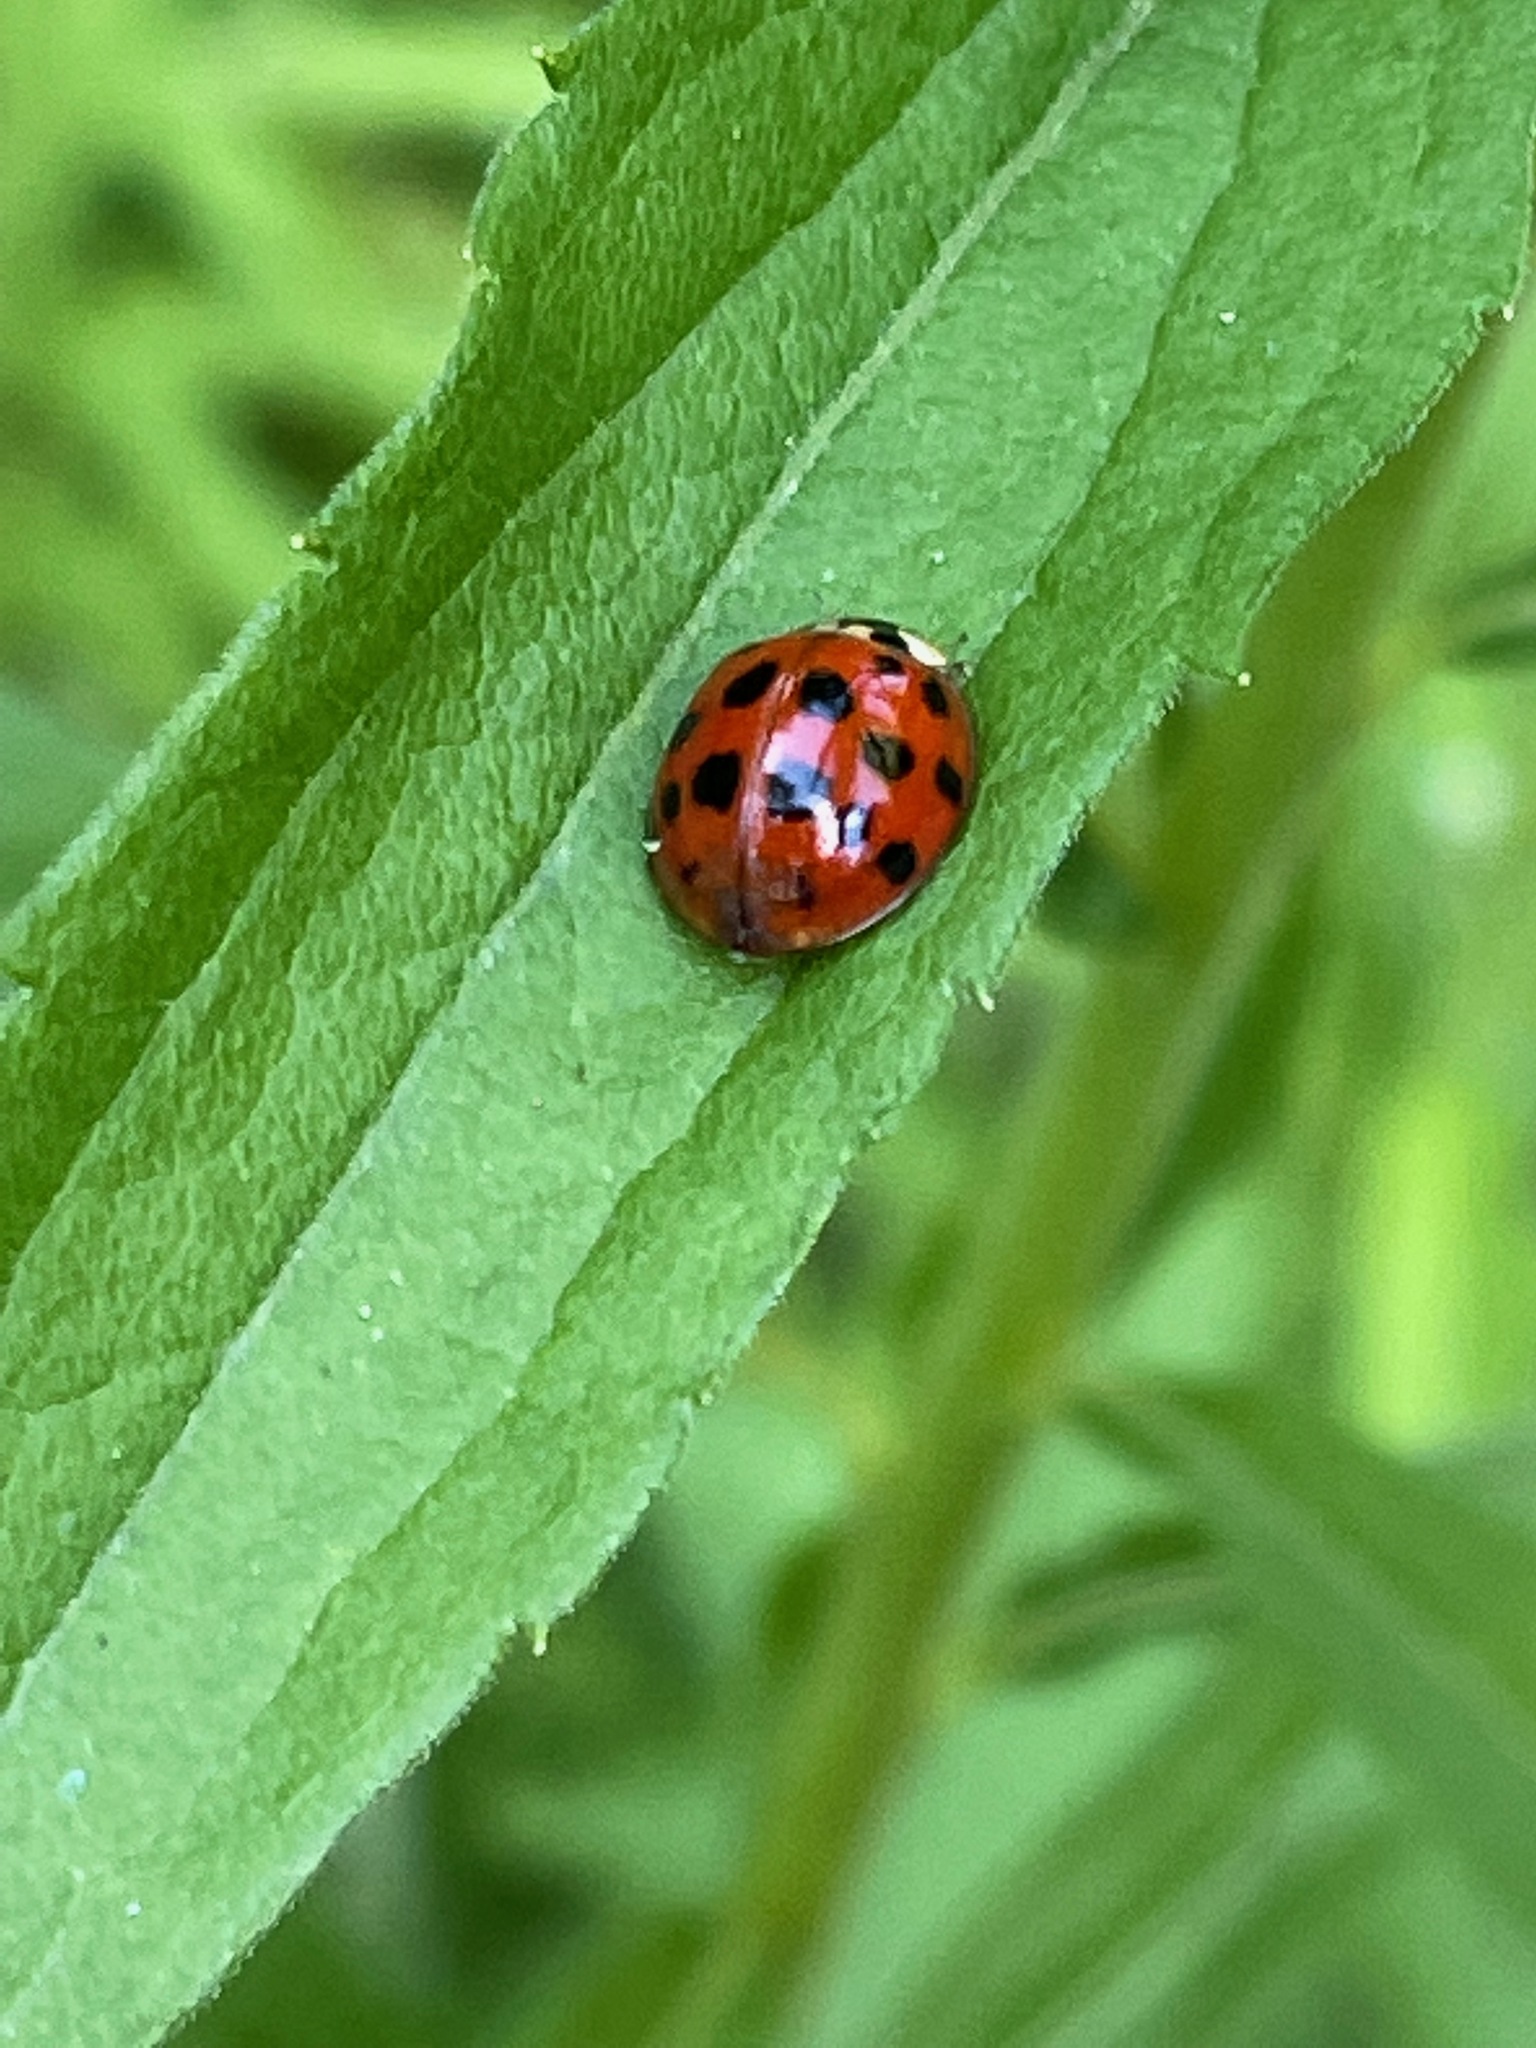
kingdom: Animalia
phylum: Arthropoda
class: Insecta
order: Coleoptera
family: Coccinellidae
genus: Harmonia
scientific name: Harmonia axyridis
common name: Harlequin ladybird
